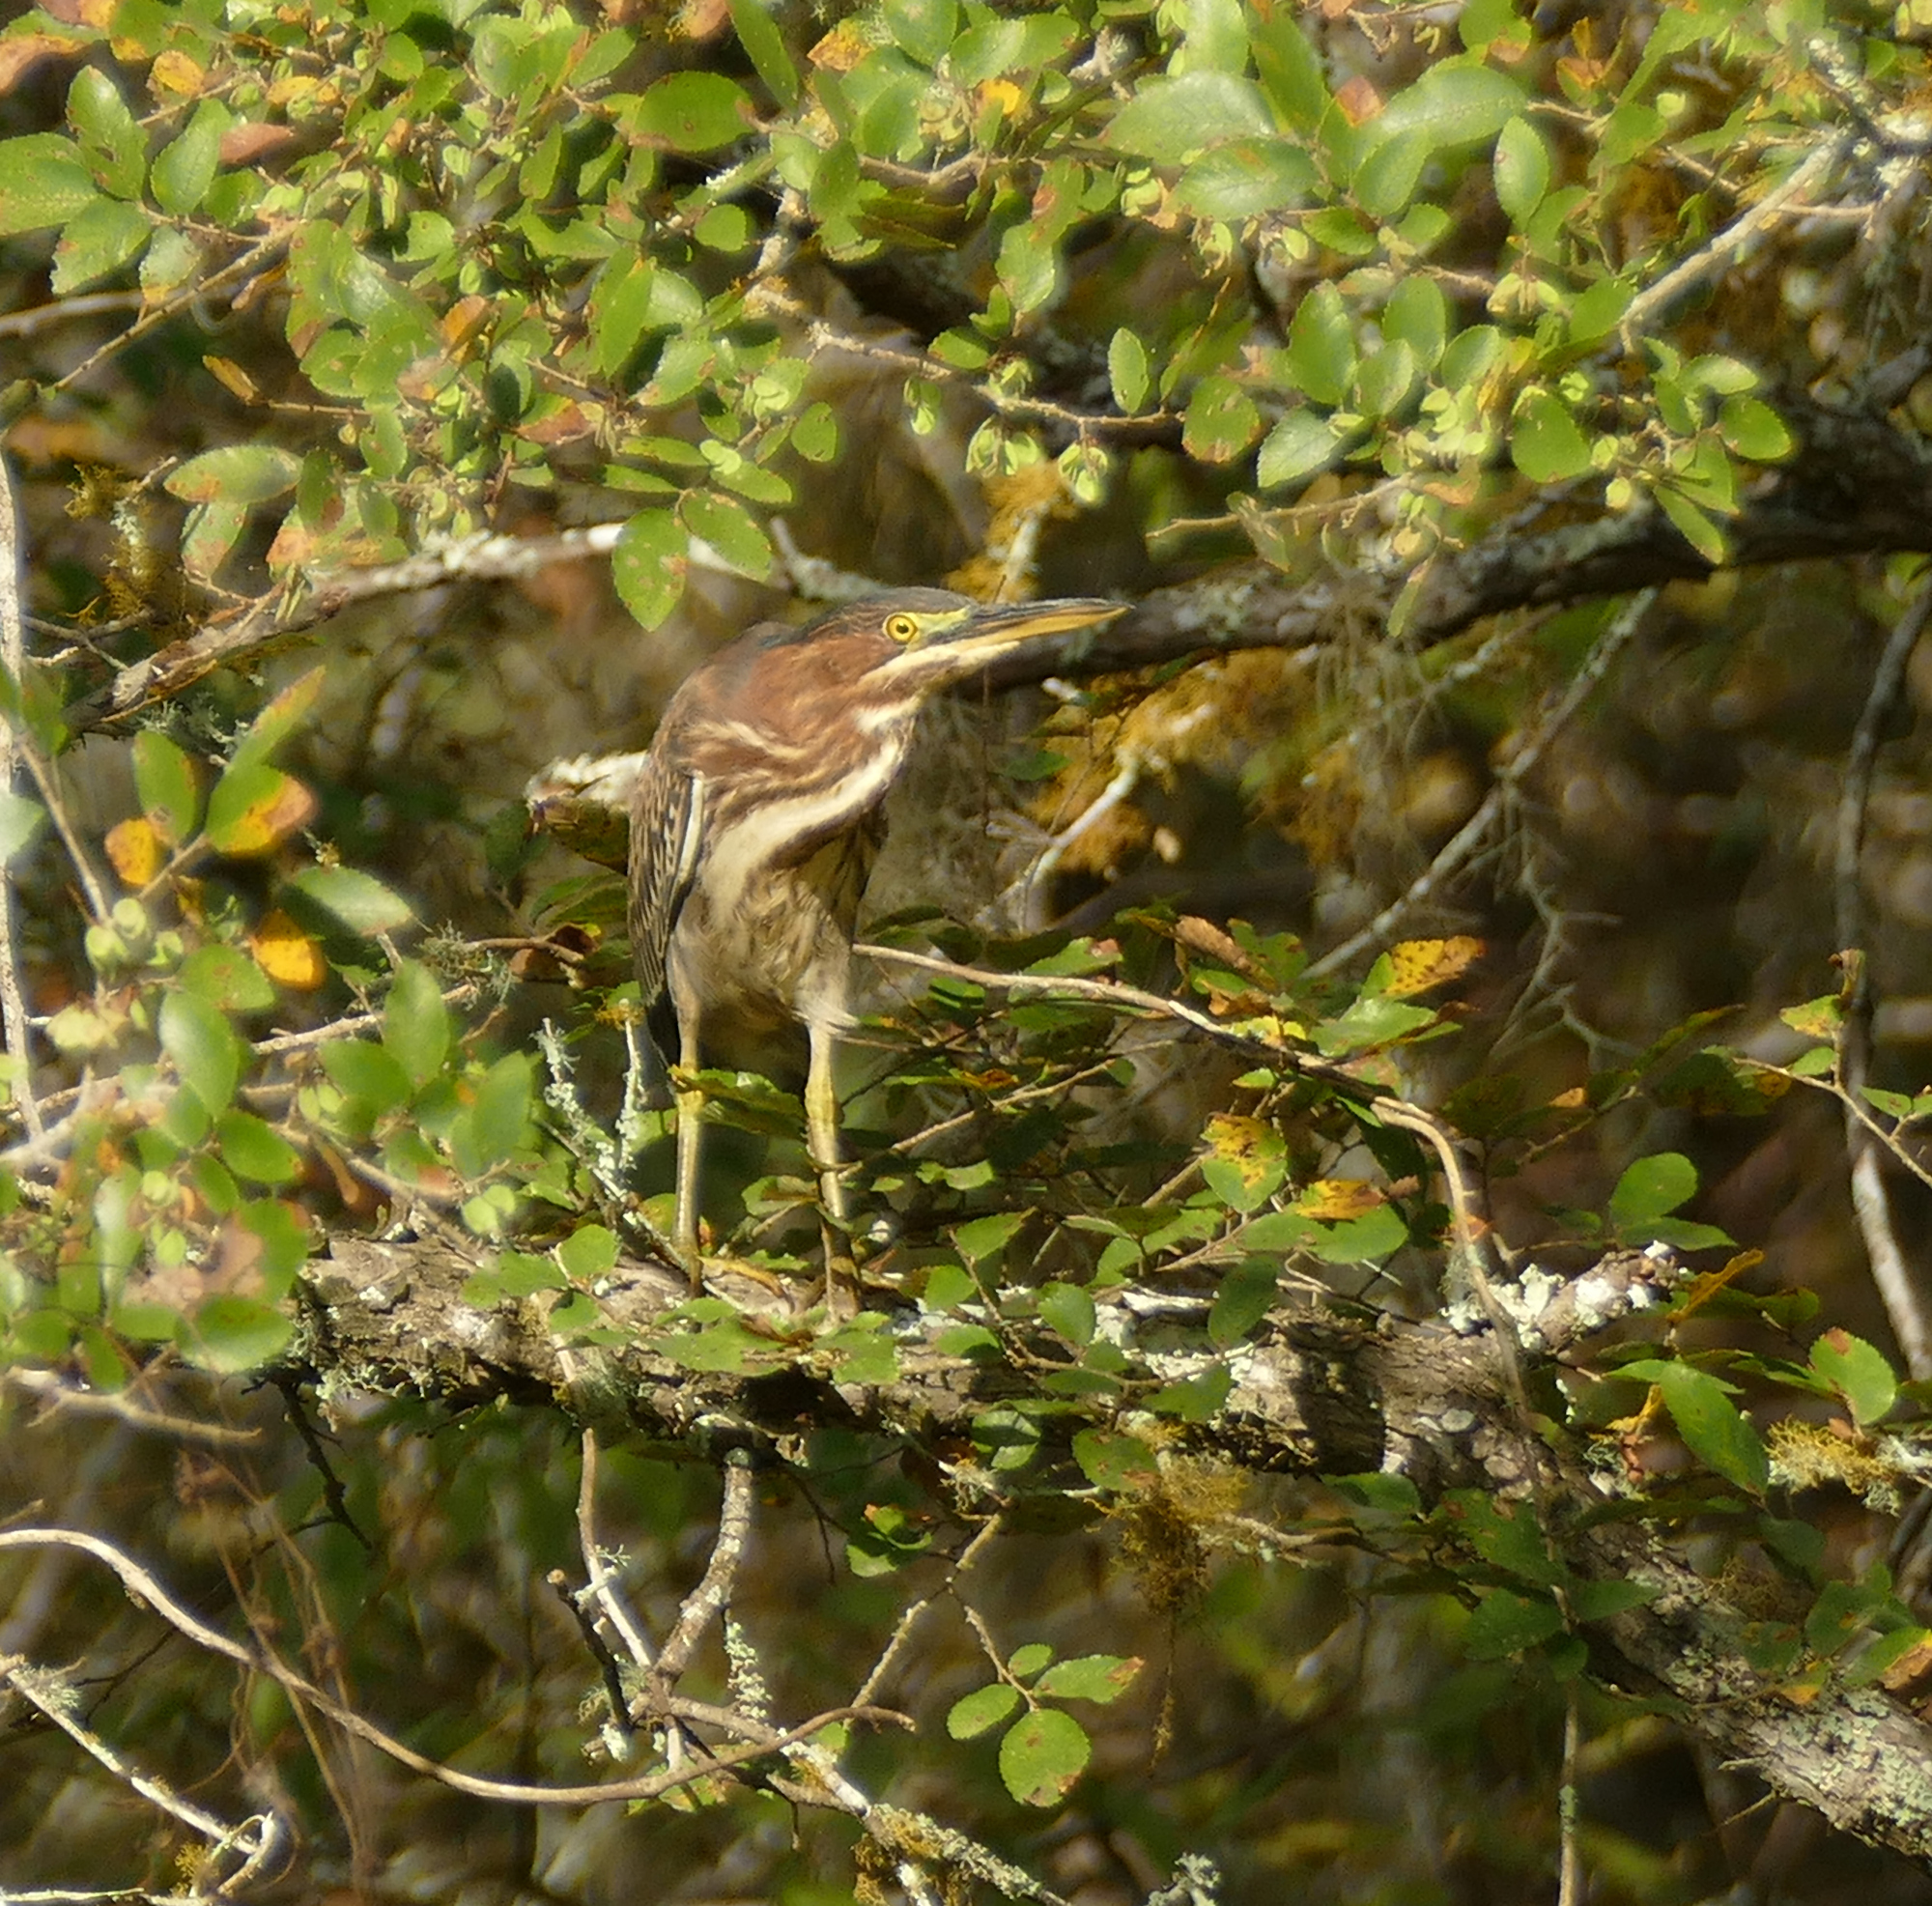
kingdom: Animalia
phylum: Chordata
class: Aves
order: Pelecaniformes
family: Ardeidae
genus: Butorides
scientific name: Butorides virescens
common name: Green heron
